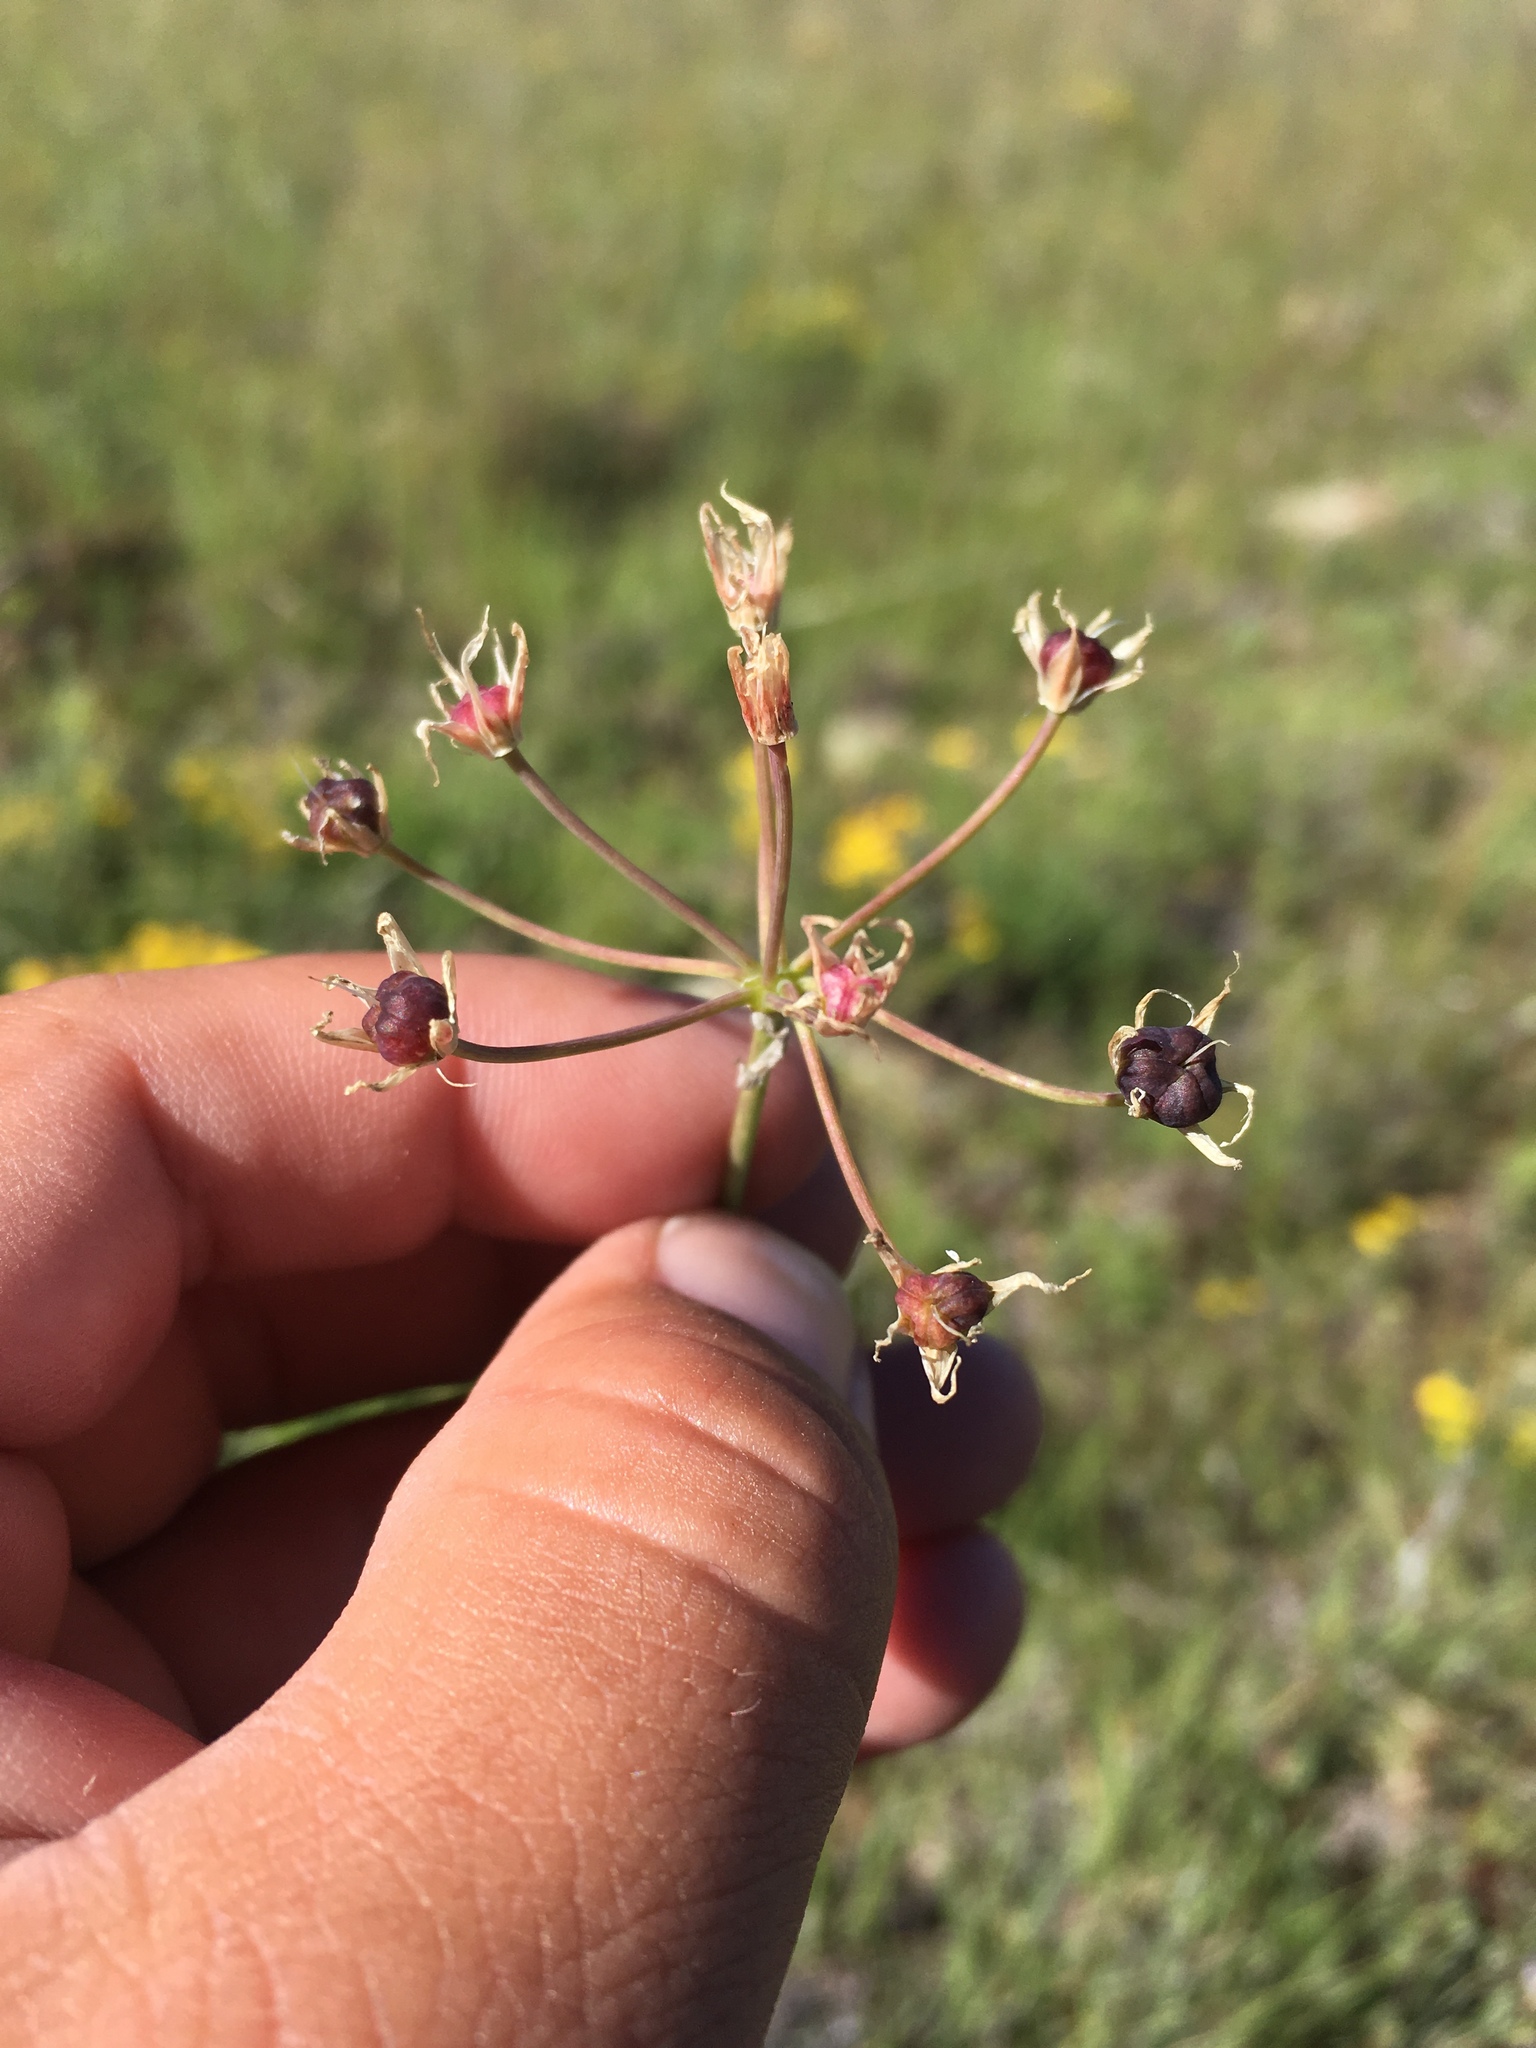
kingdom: Plantae
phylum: Tracheophyta
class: Liliopsida
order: Asparagales
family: Amaryllidaceae
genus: Allium
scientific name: Allium rhizomatum
